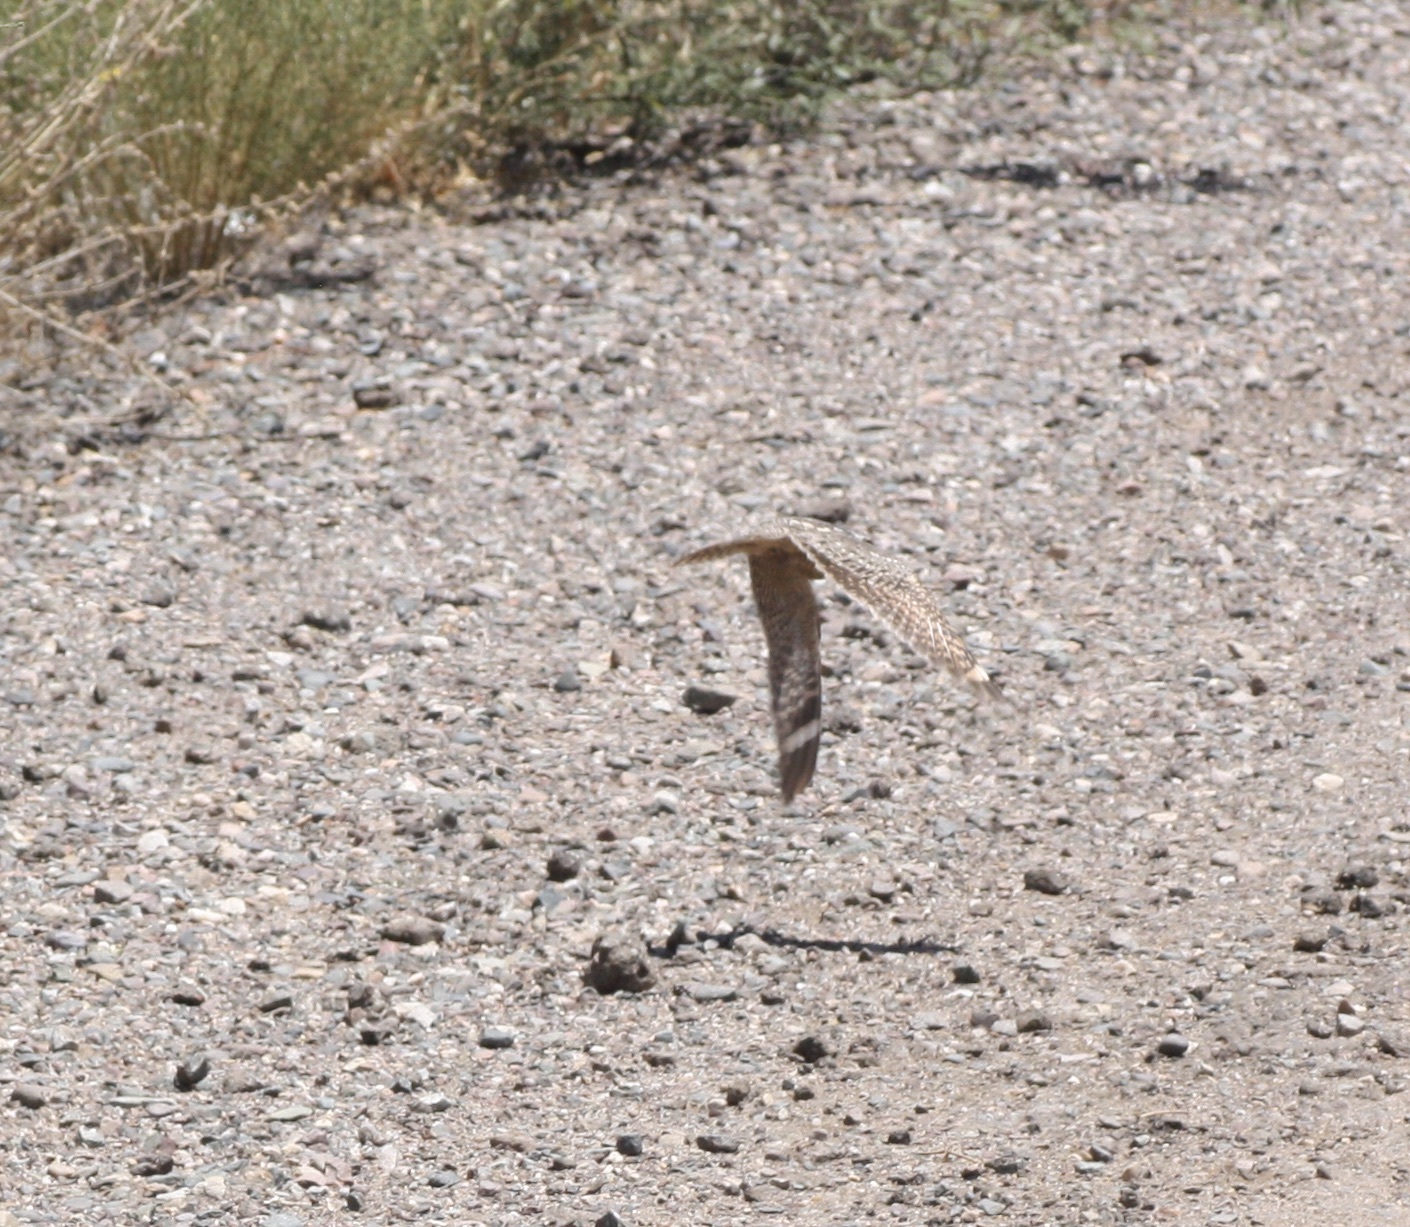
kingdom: Animalia
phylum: Chordata
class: Aves
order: Caprimulgiformes
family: Caprimulgidae
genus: Chordeiles
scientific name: Chordeiles acutipennis
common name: Lesser nighthawk
